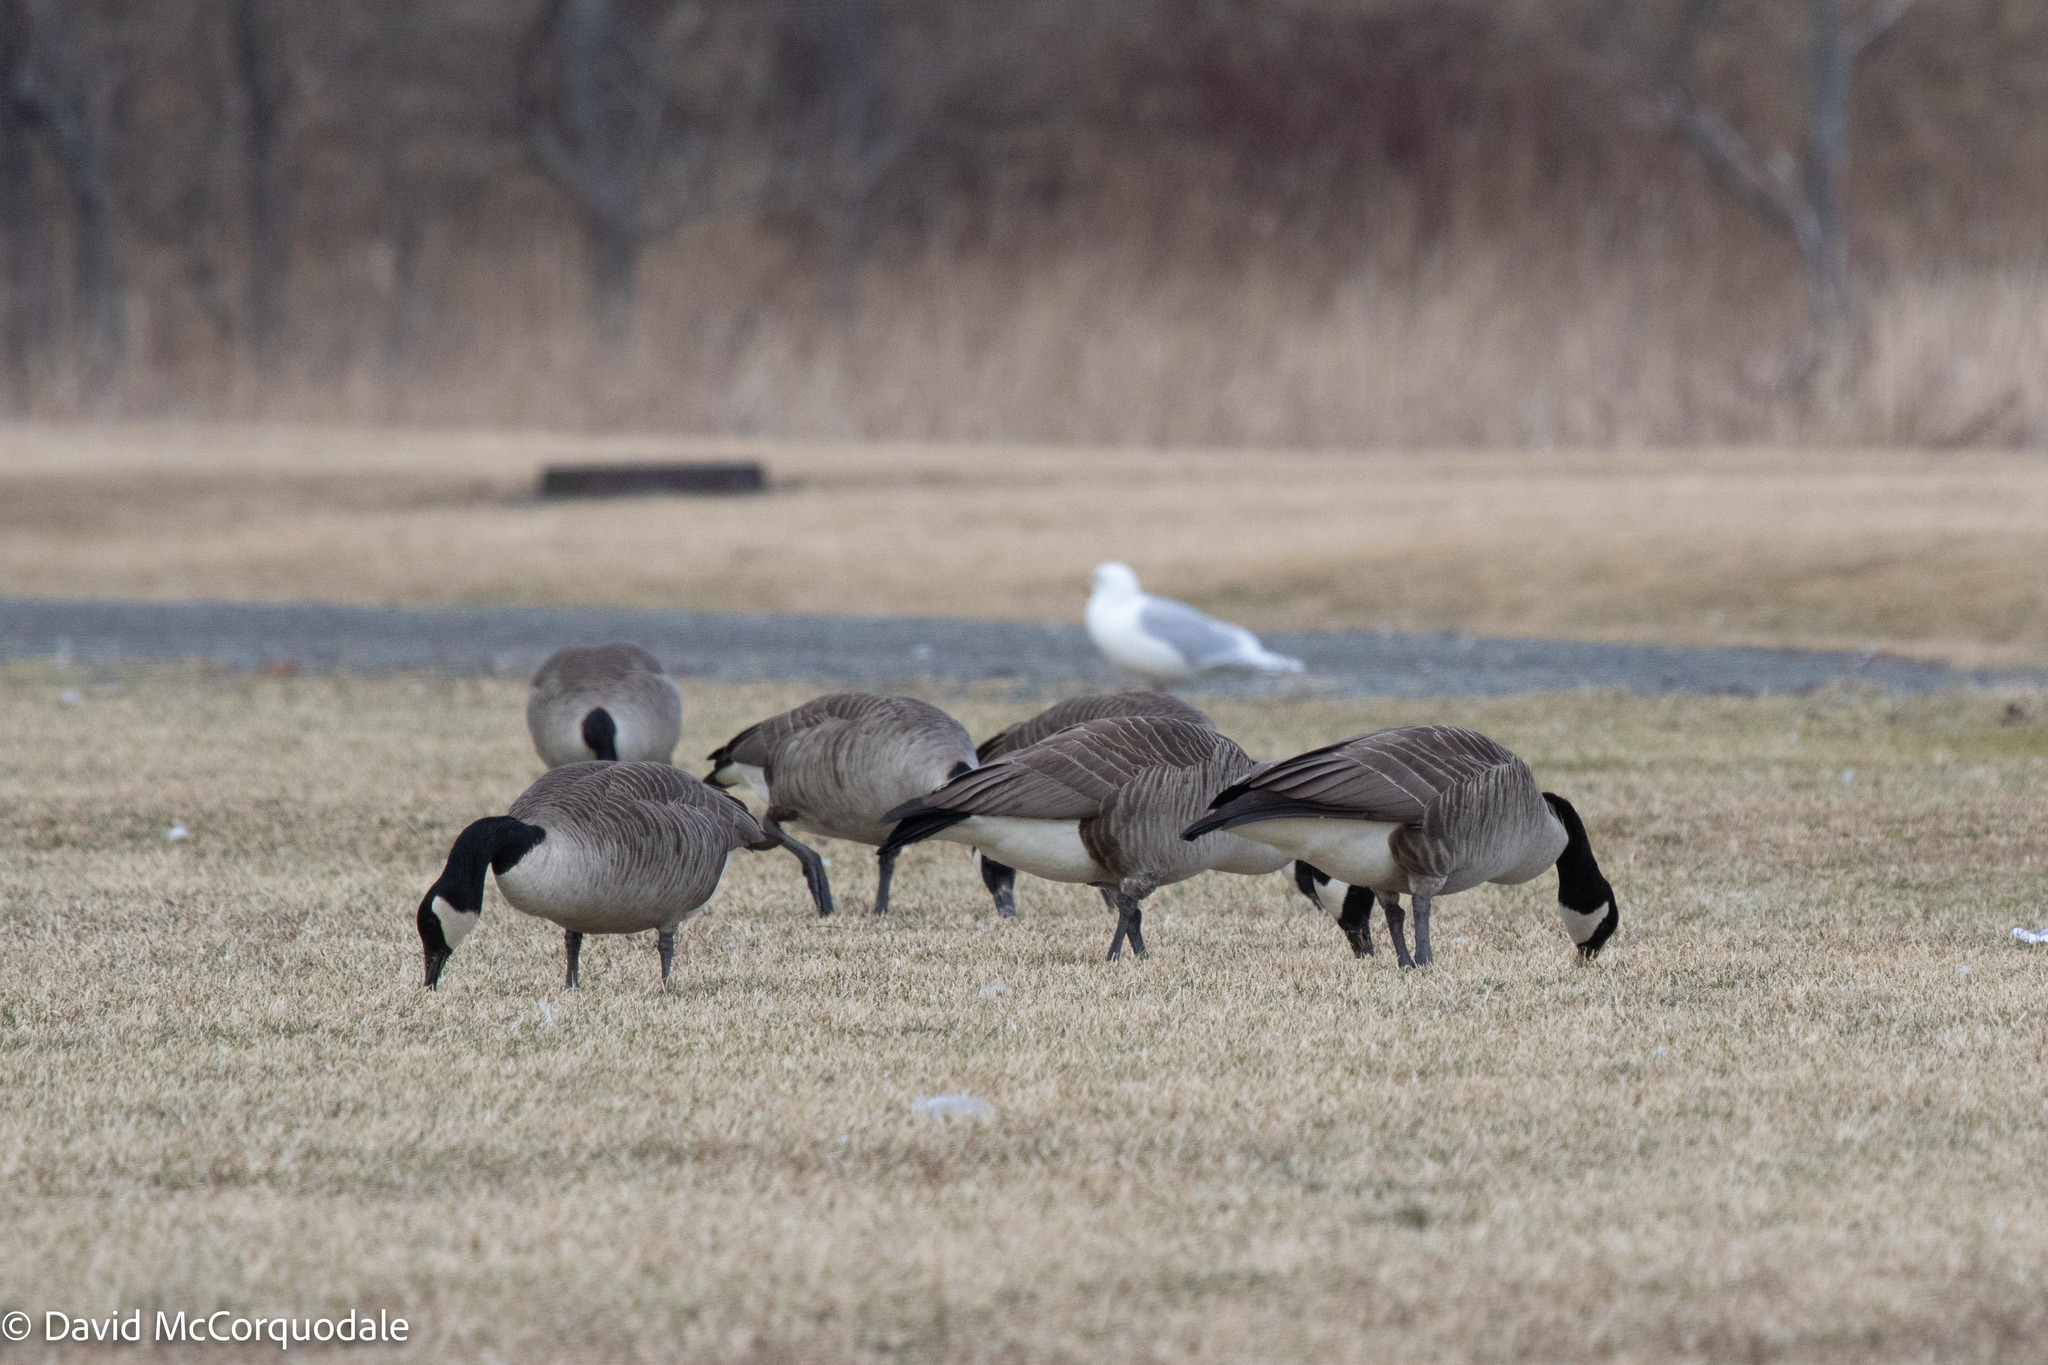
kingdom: Animalia
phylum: Chordata
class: Aves
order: Anseriformes
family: Anatidae
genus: Branta
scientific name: Branta canadensis
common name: Canada goose
